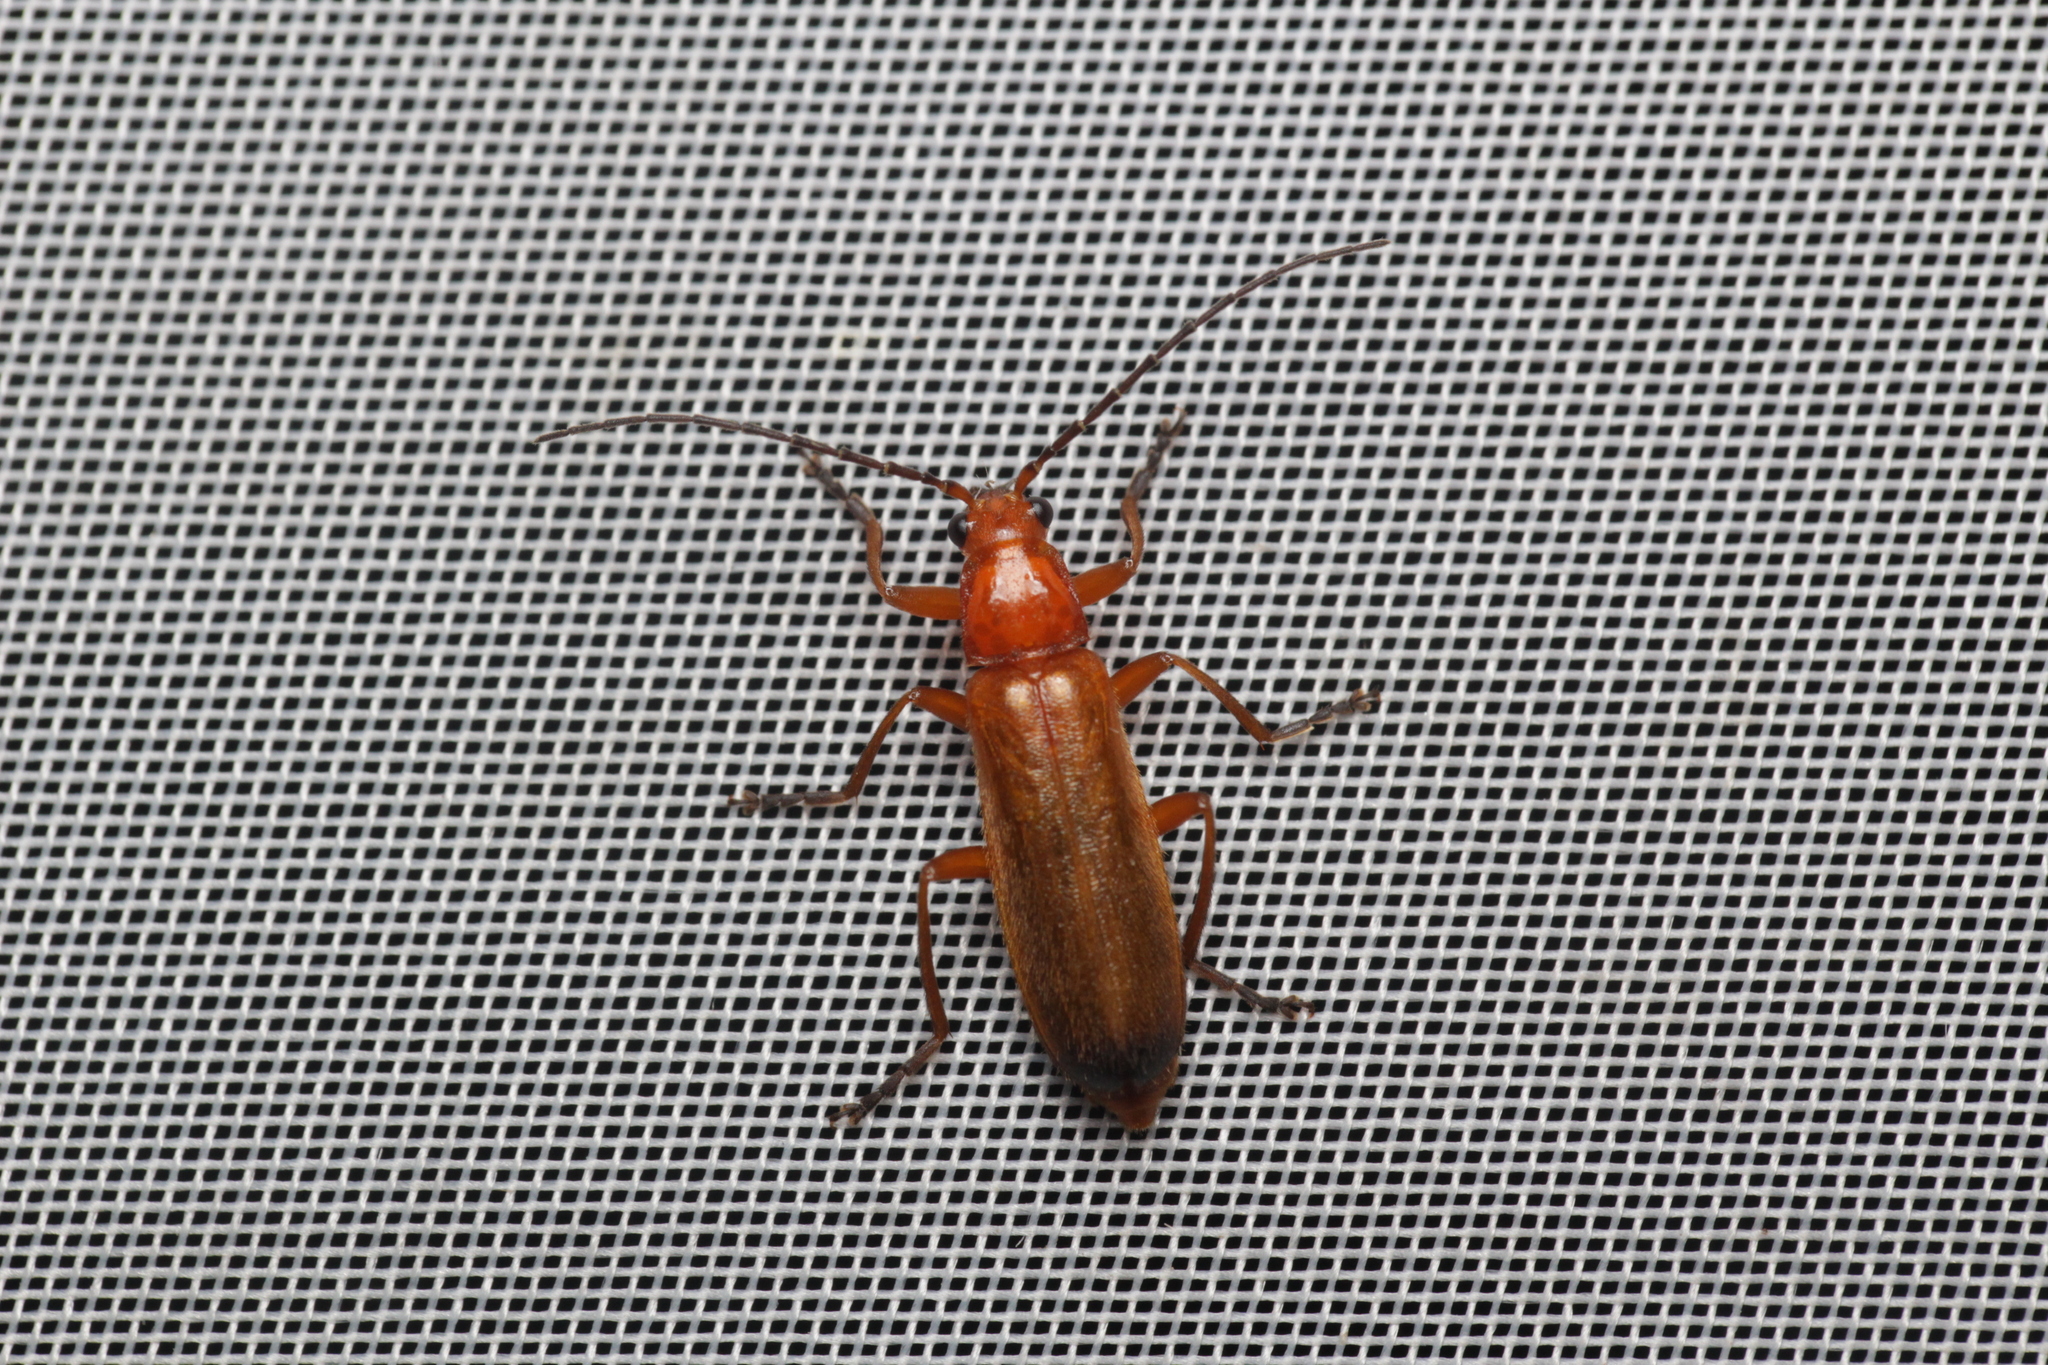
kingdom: Animalia
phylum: Arthropoda
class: Insecta
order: Coleoptera
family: Cantharidae
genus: Rhagonycha
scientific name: Rhagonycha fulva
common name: Common red soldier beetle
